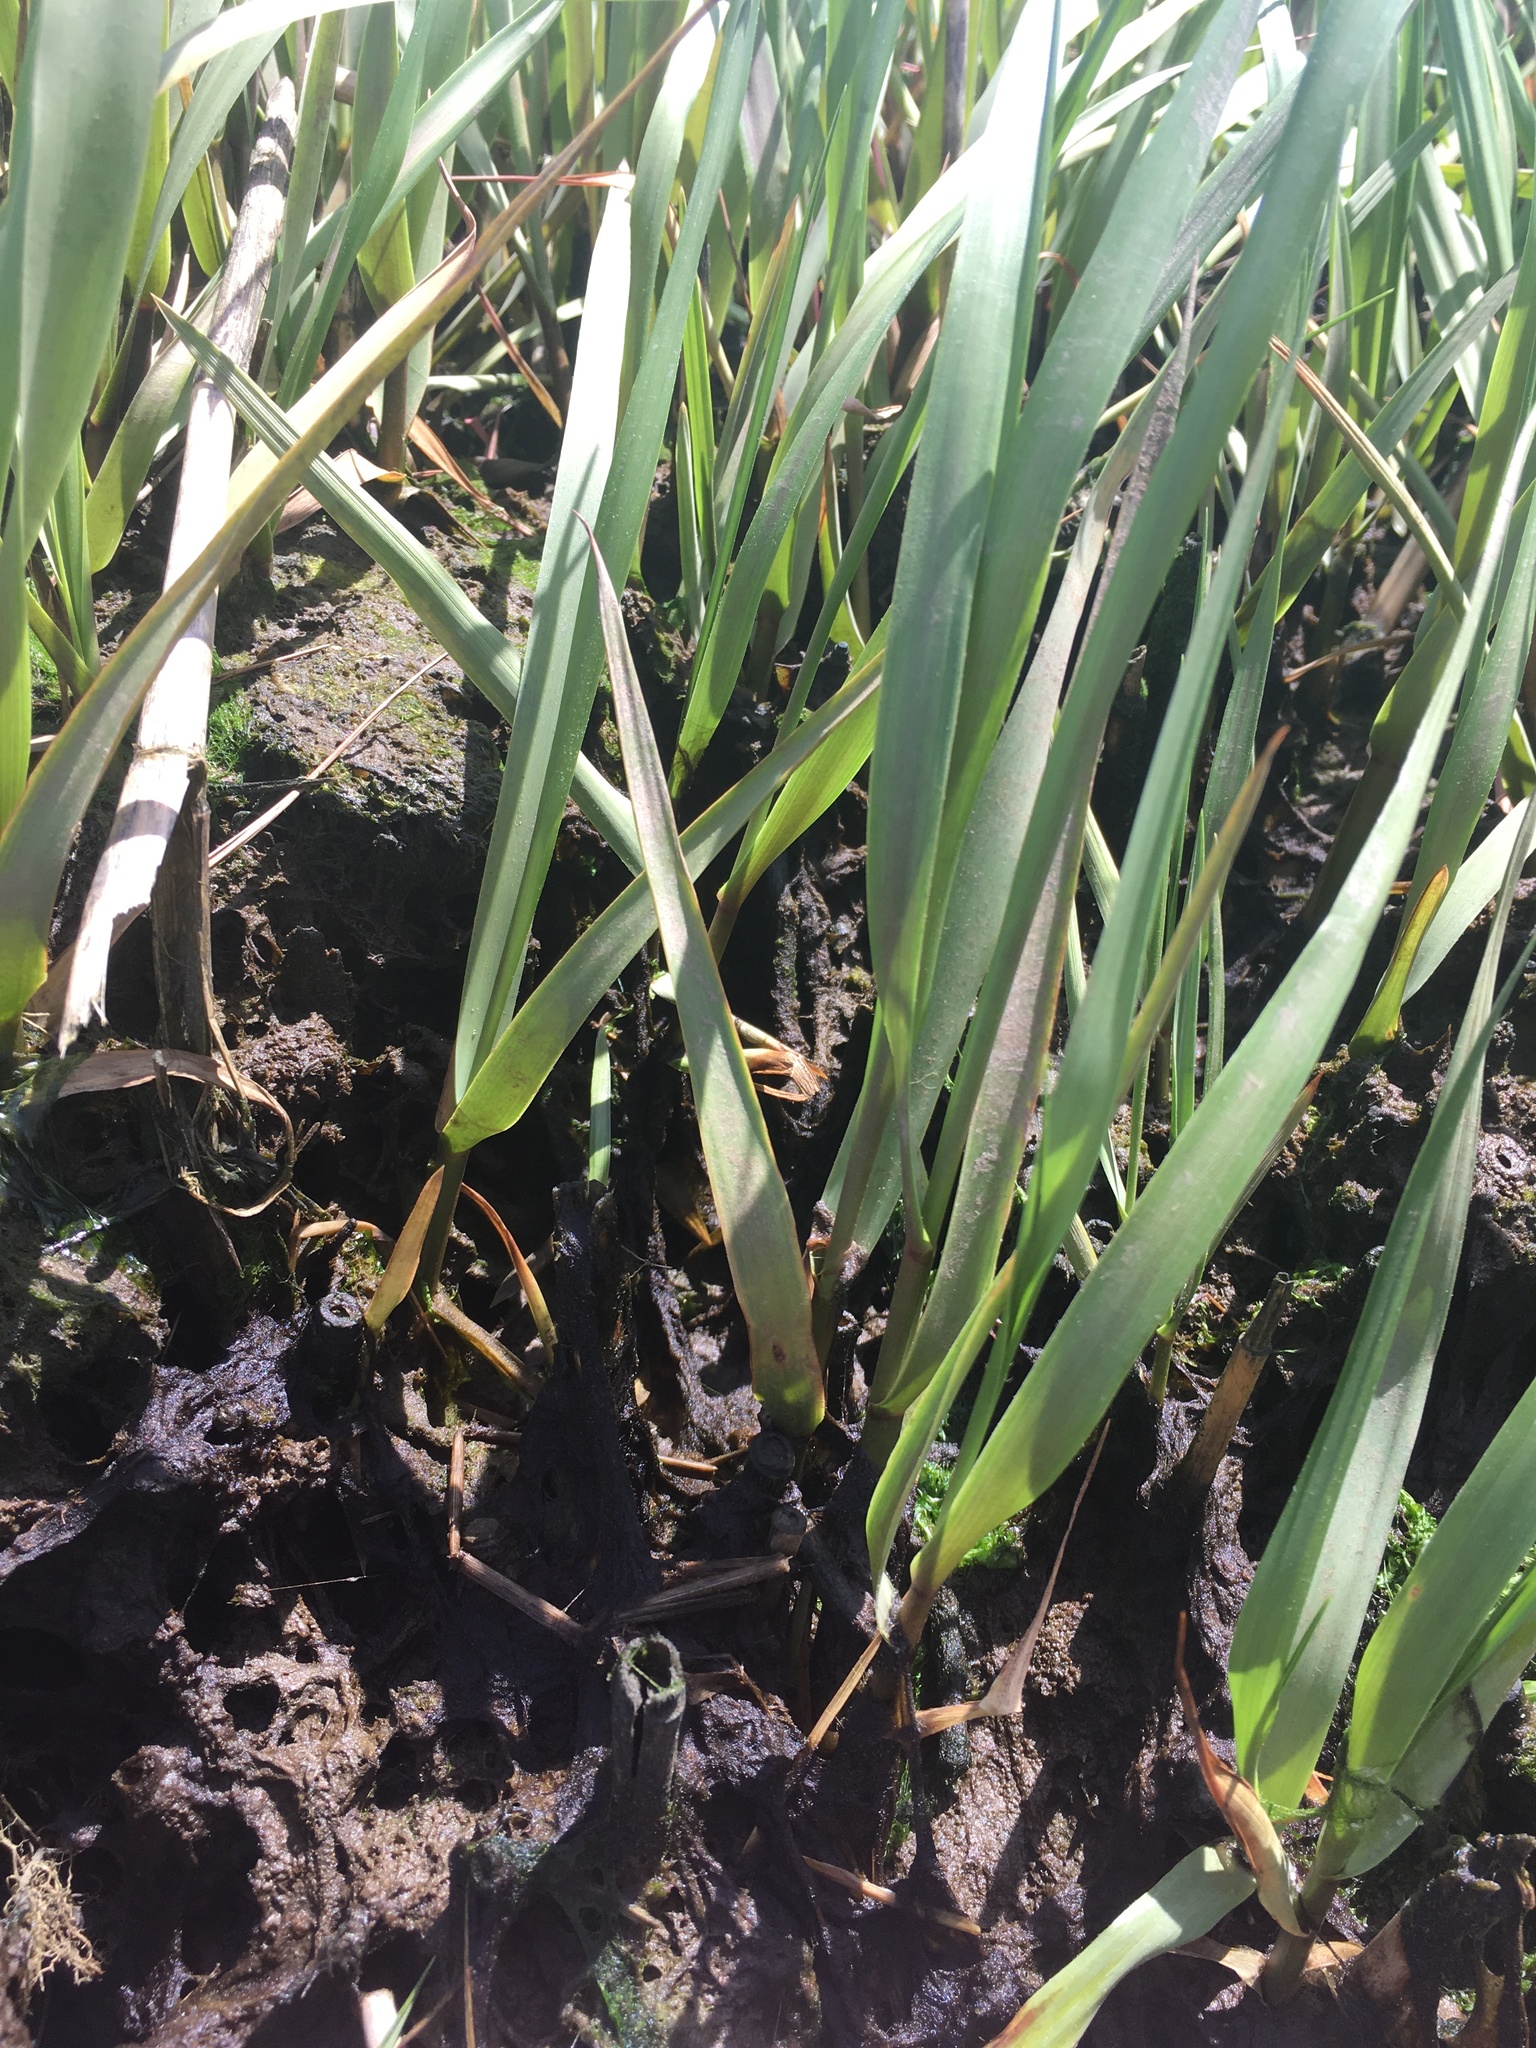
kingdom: Plantae
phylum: Tracheophyta
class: Liliopsida
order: Poales
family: Poaceae
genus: Sporobolus
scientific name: Sporobolus alterniflorus
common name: Atlantic cordgrass
